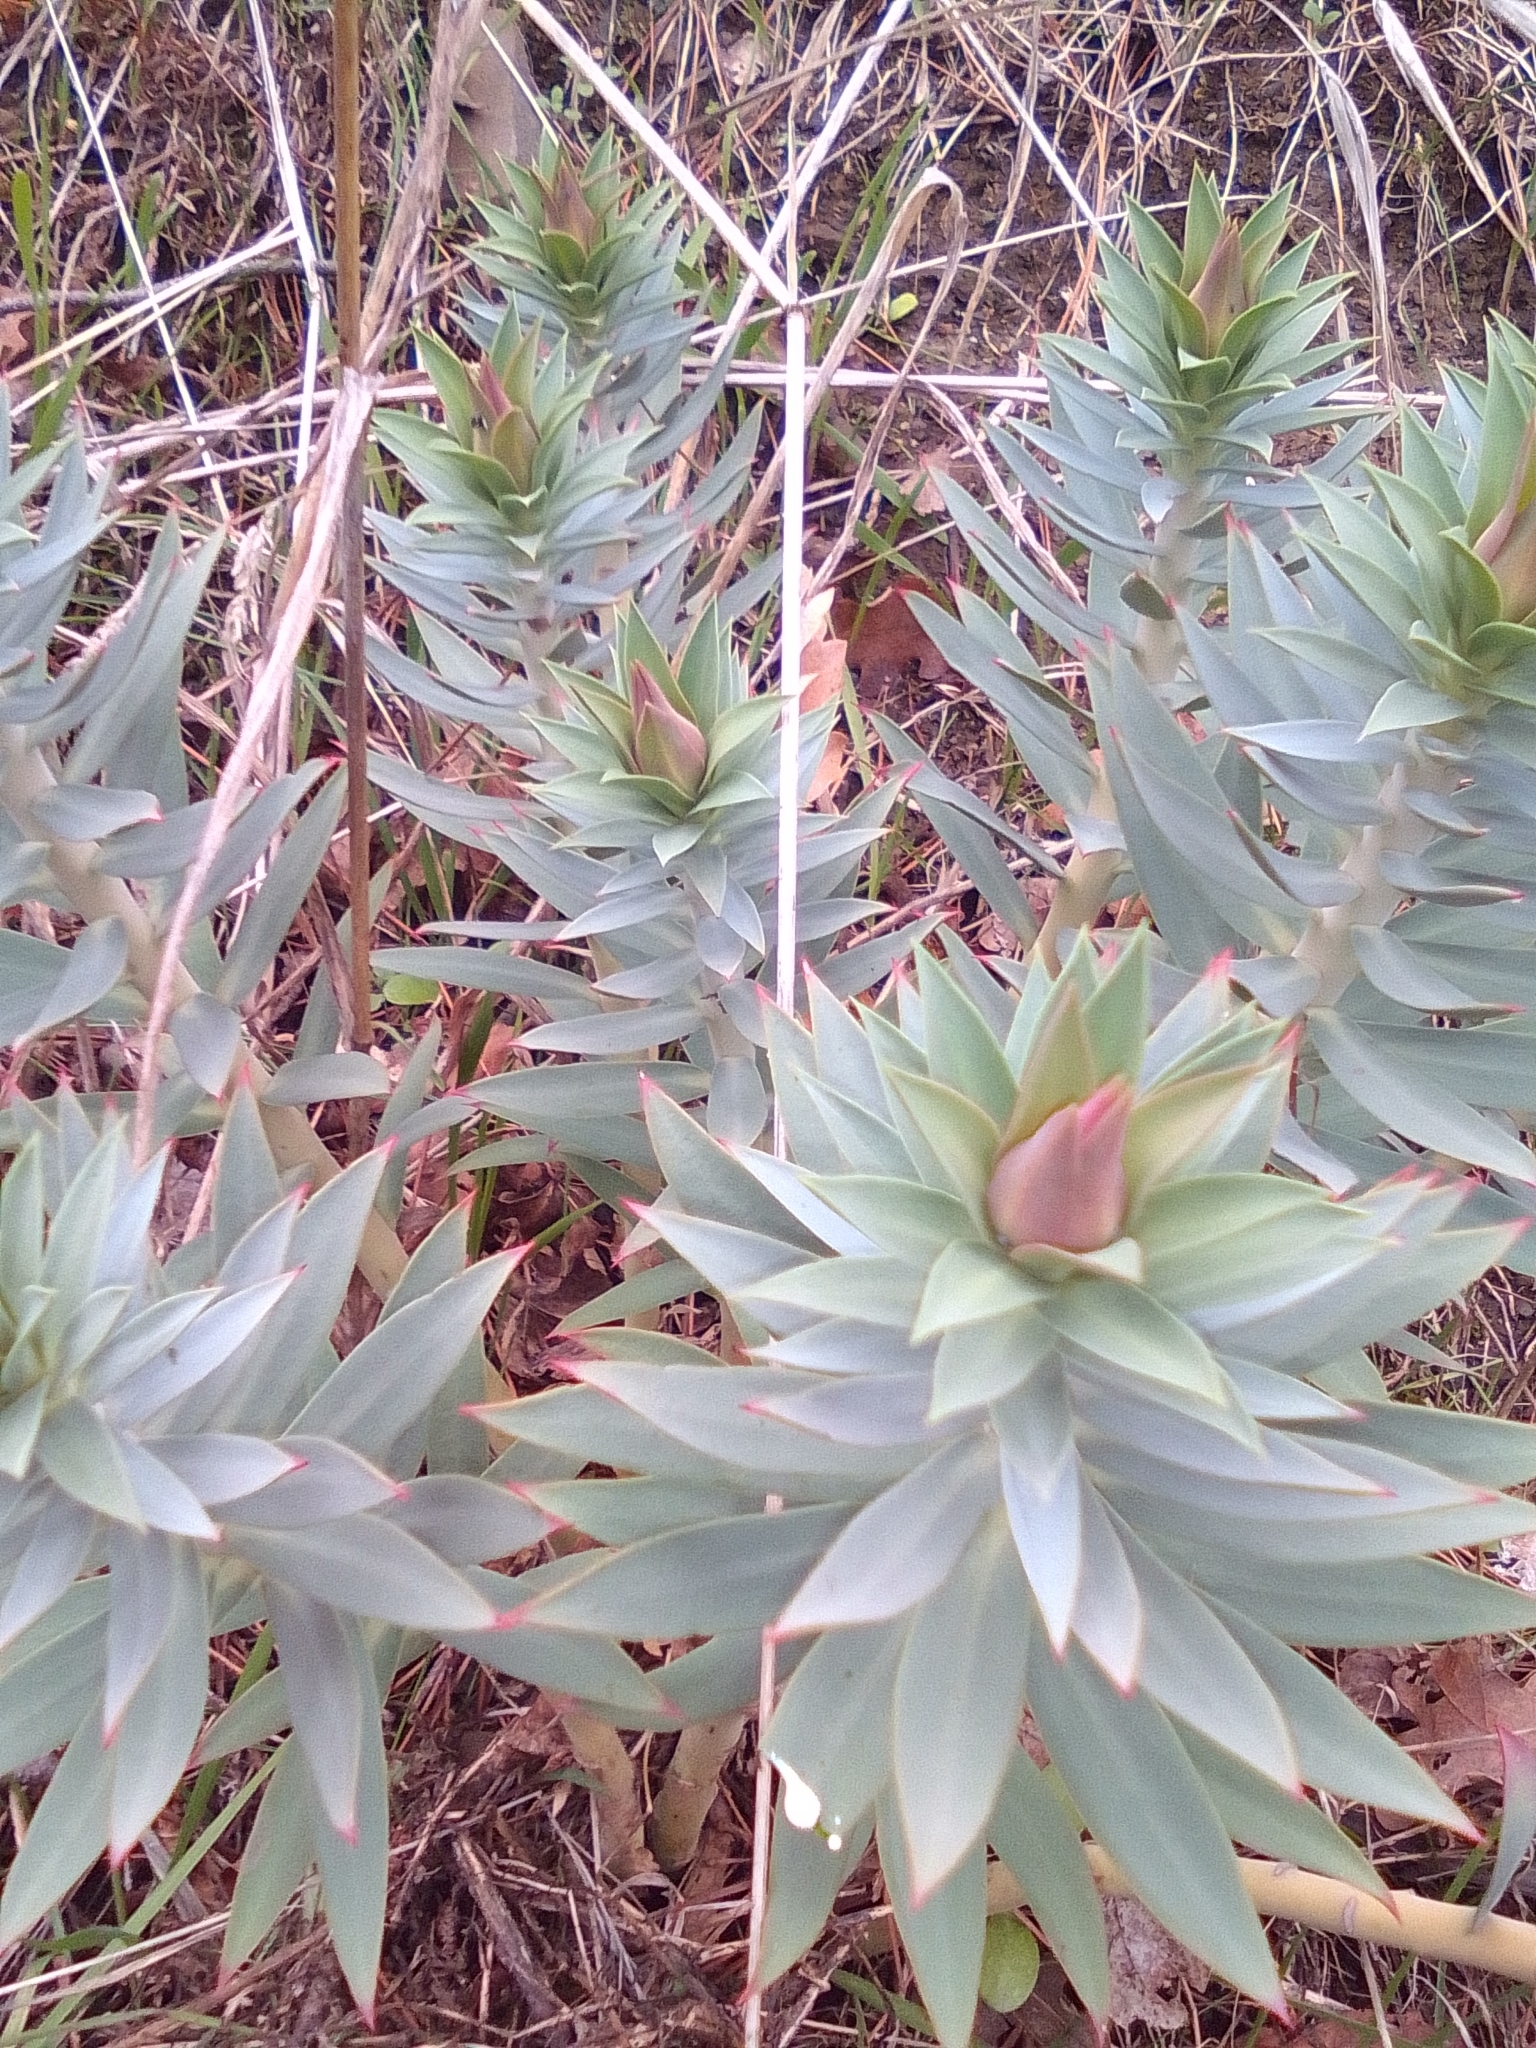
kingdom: Plantae
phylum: Tracheophyta
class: Magnoliopsida
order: Malpighiales
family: Euphorbiaceae
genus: Euphorbia
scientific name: Euphorbia rigida
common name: Upright myrtle spurge
